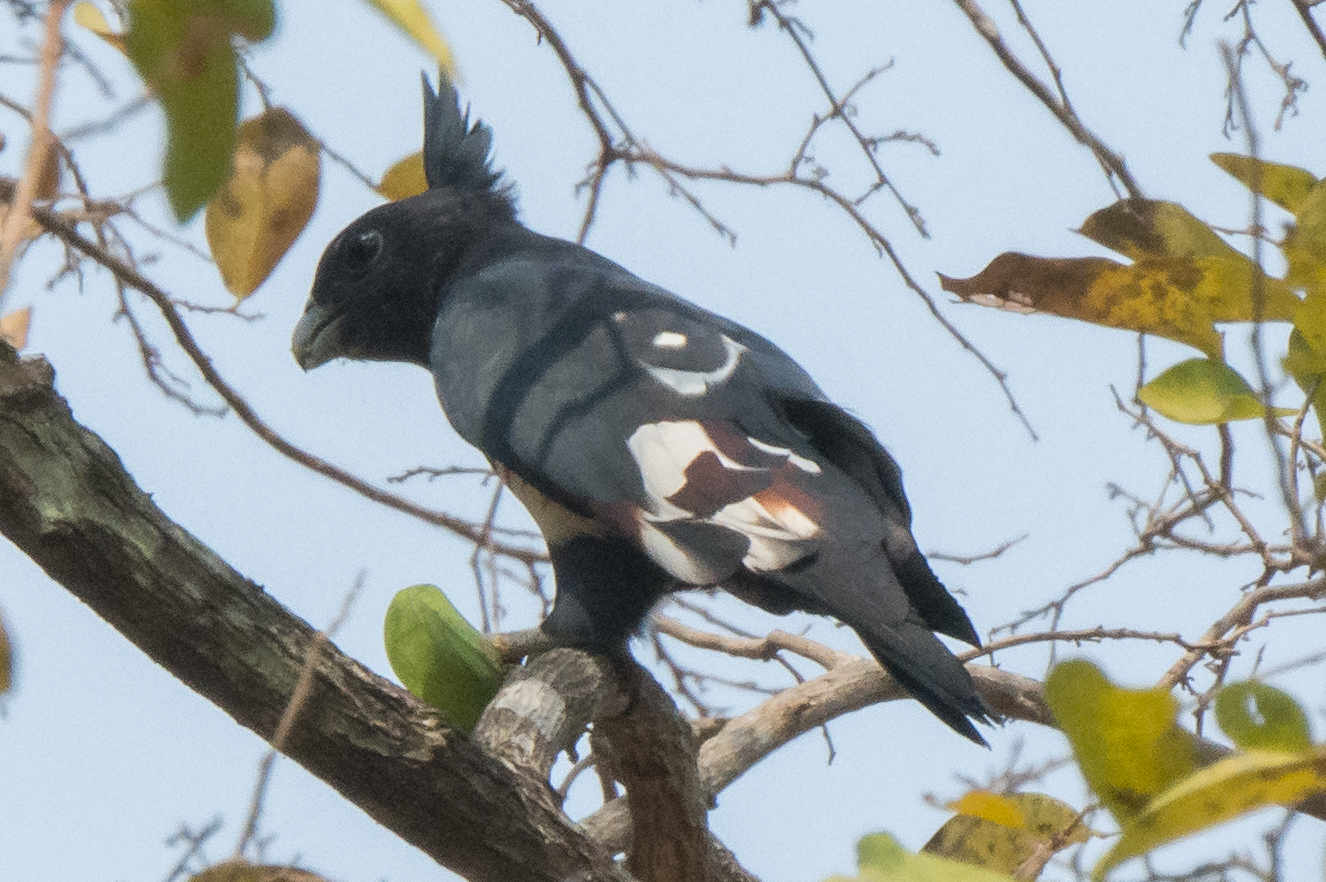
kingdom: Animalia
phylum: Chordata
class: Aves
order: Accipitriformes
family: Accipitridae
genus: Aviceda
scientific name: Aviceda leuphotes
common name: Black baza
